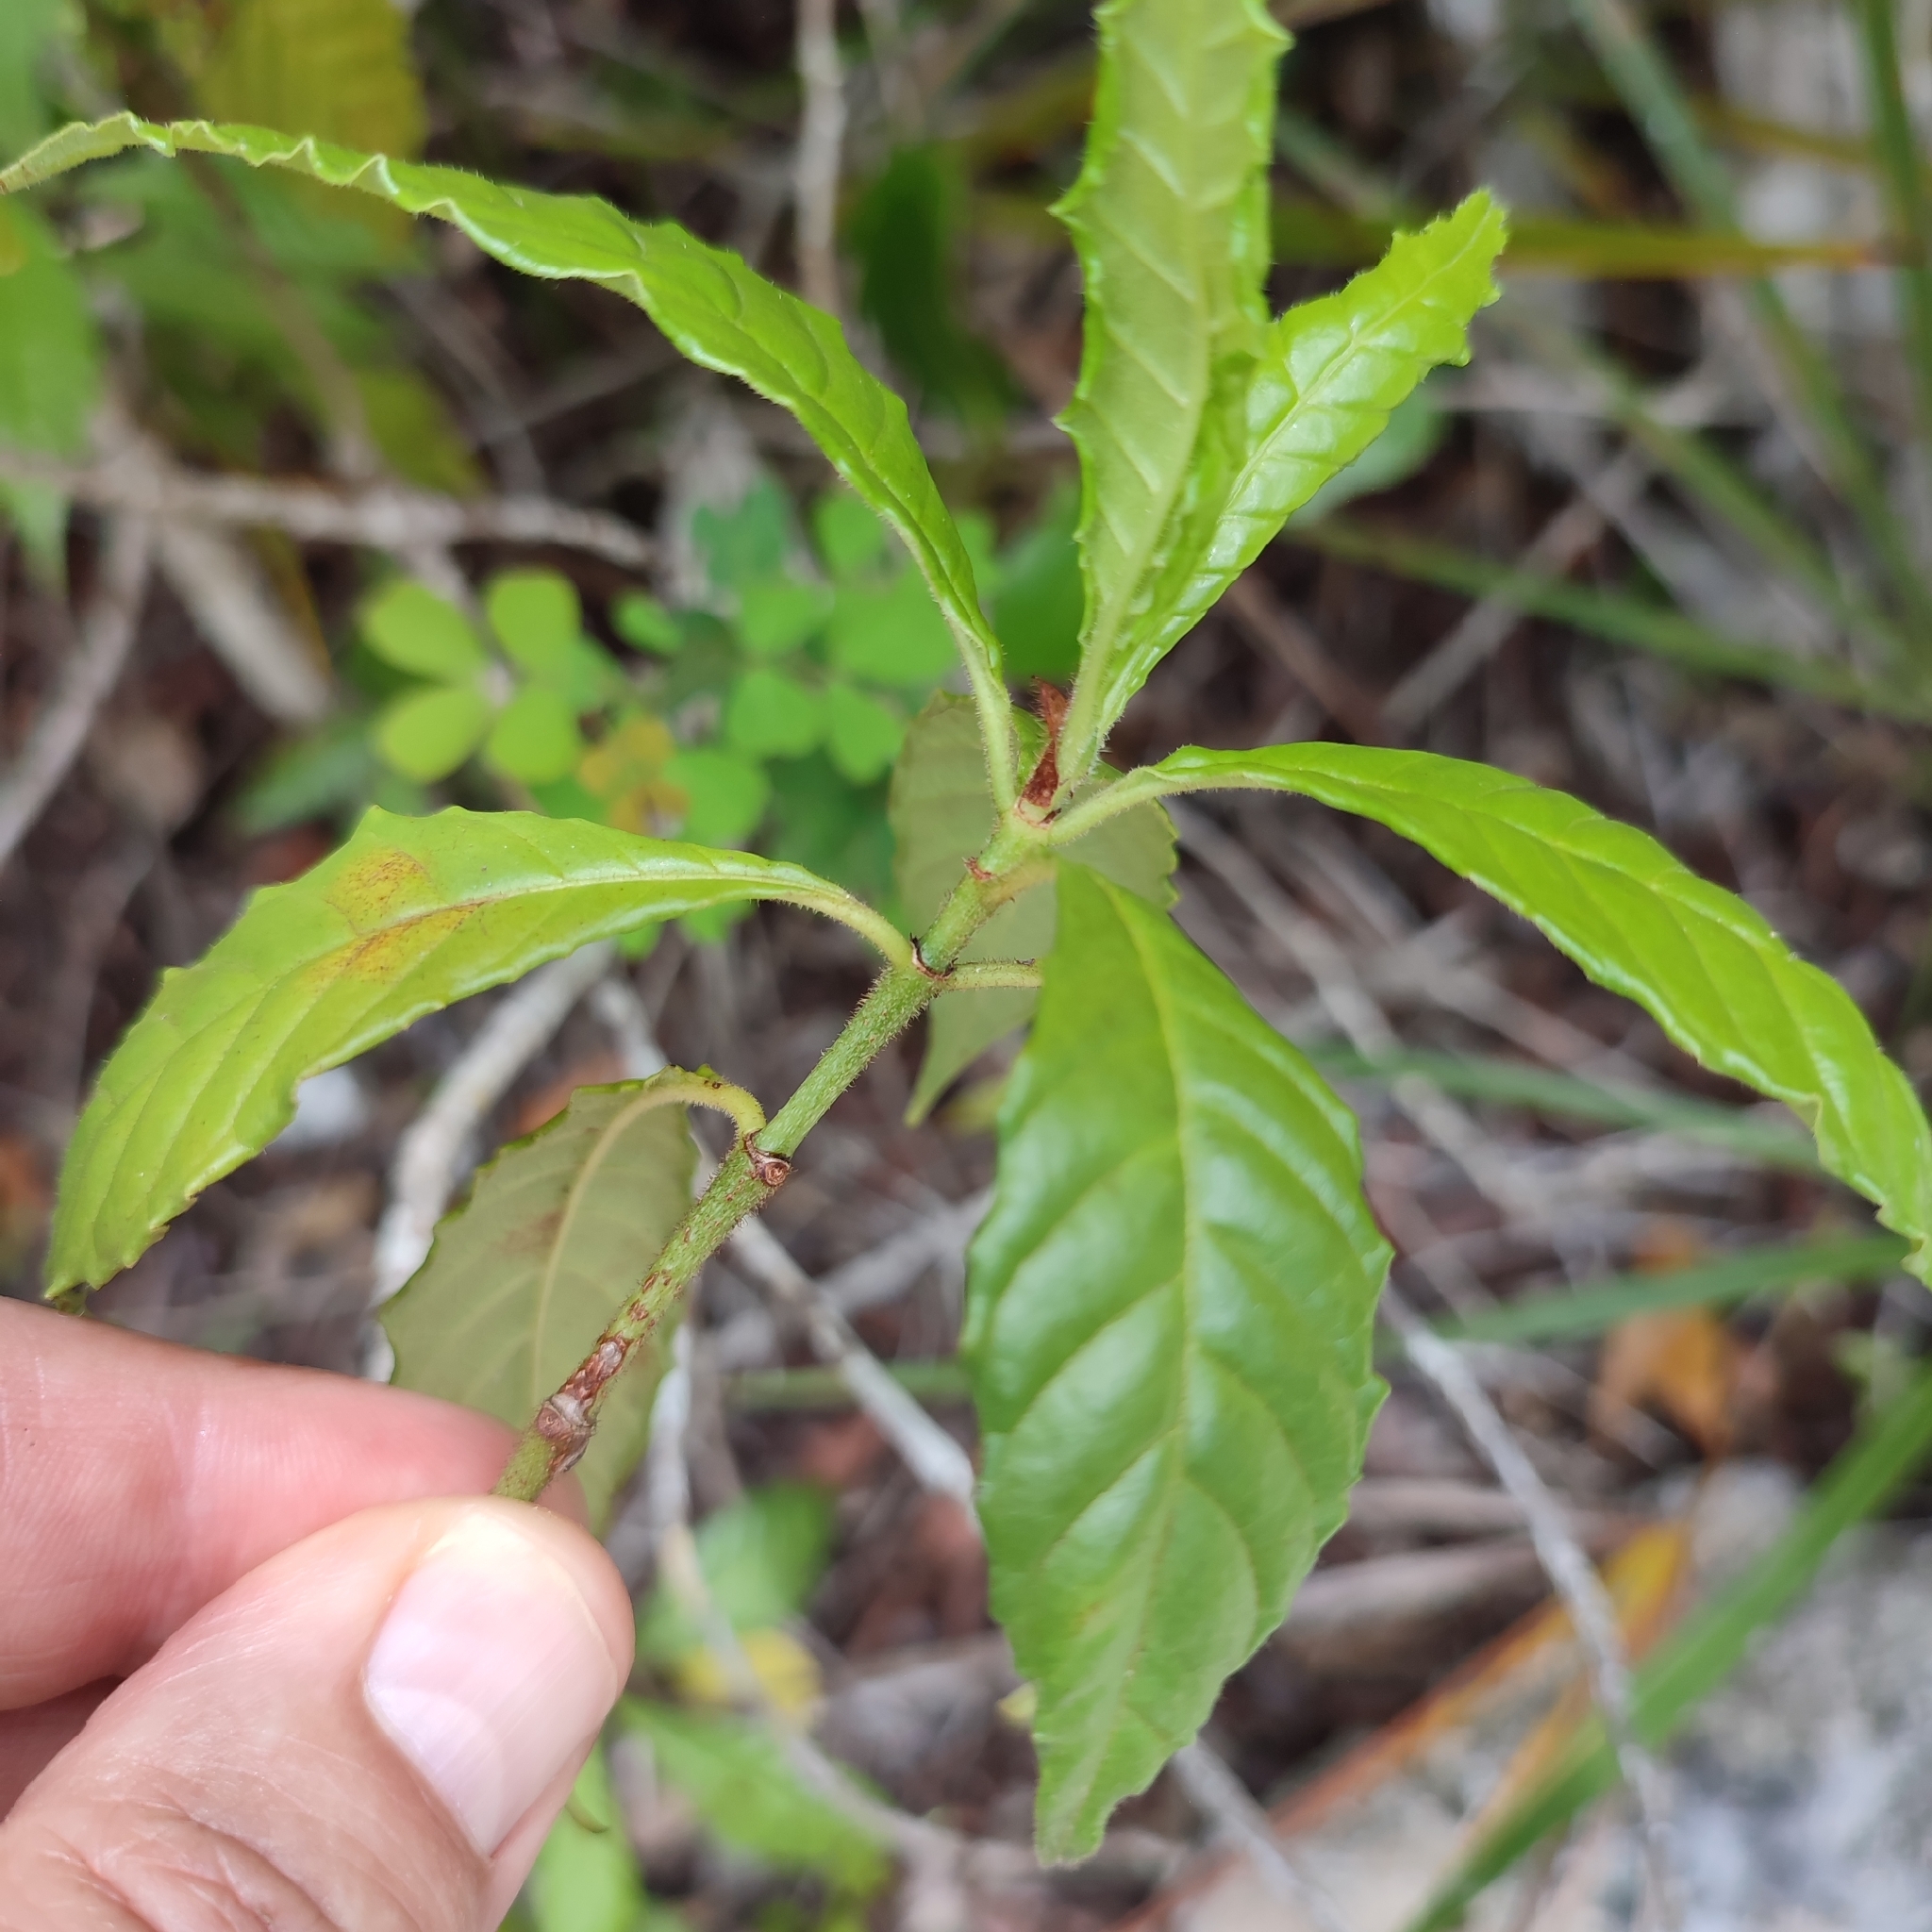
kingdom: Plantae
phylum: Tracheophyta
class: Magnoliopsida
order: Gentianales
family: Rubiaceae
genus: Psychotria
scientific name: Psychotria nervosa
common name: Bastard cankerberry
